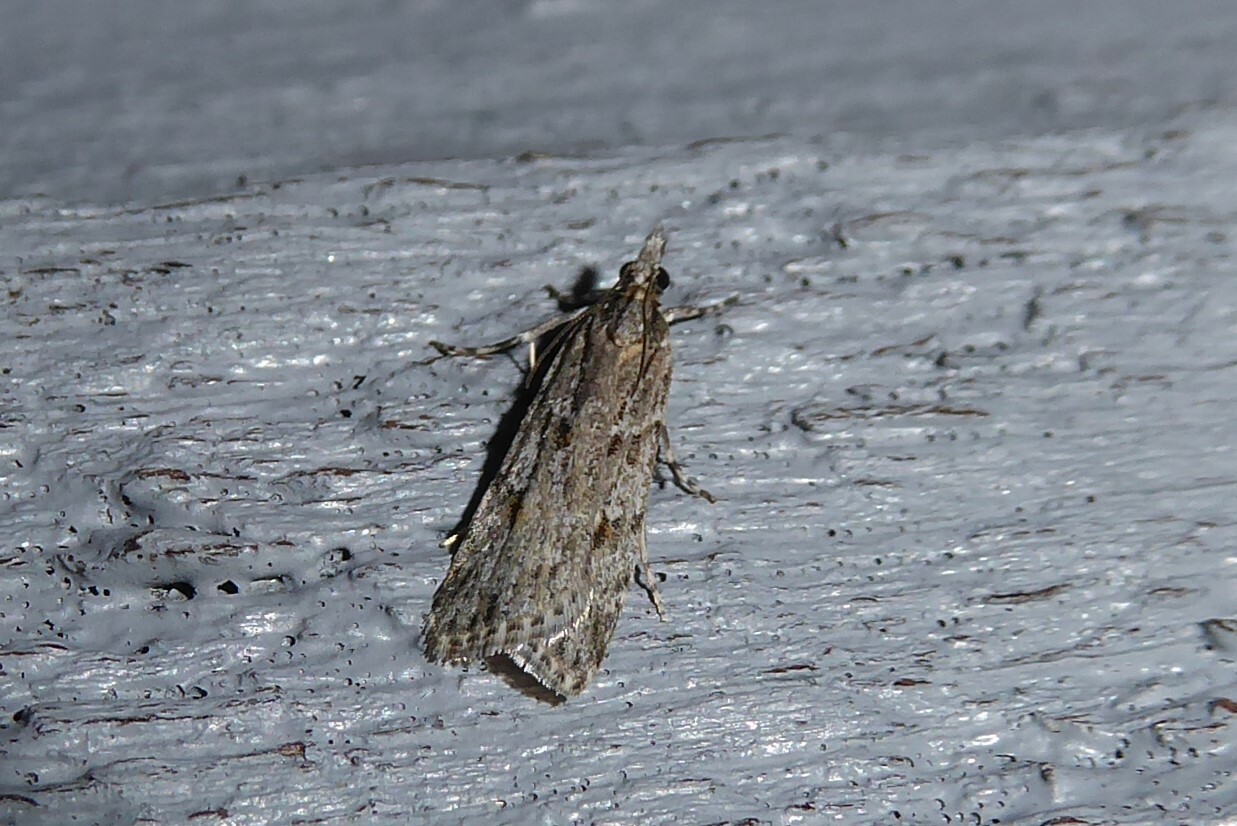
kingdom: Animalia
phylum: Arthropoda
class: Insecta
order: Lepidoptera
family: Crambidae
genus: Scoparia
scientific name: Scoparia chalicodes
